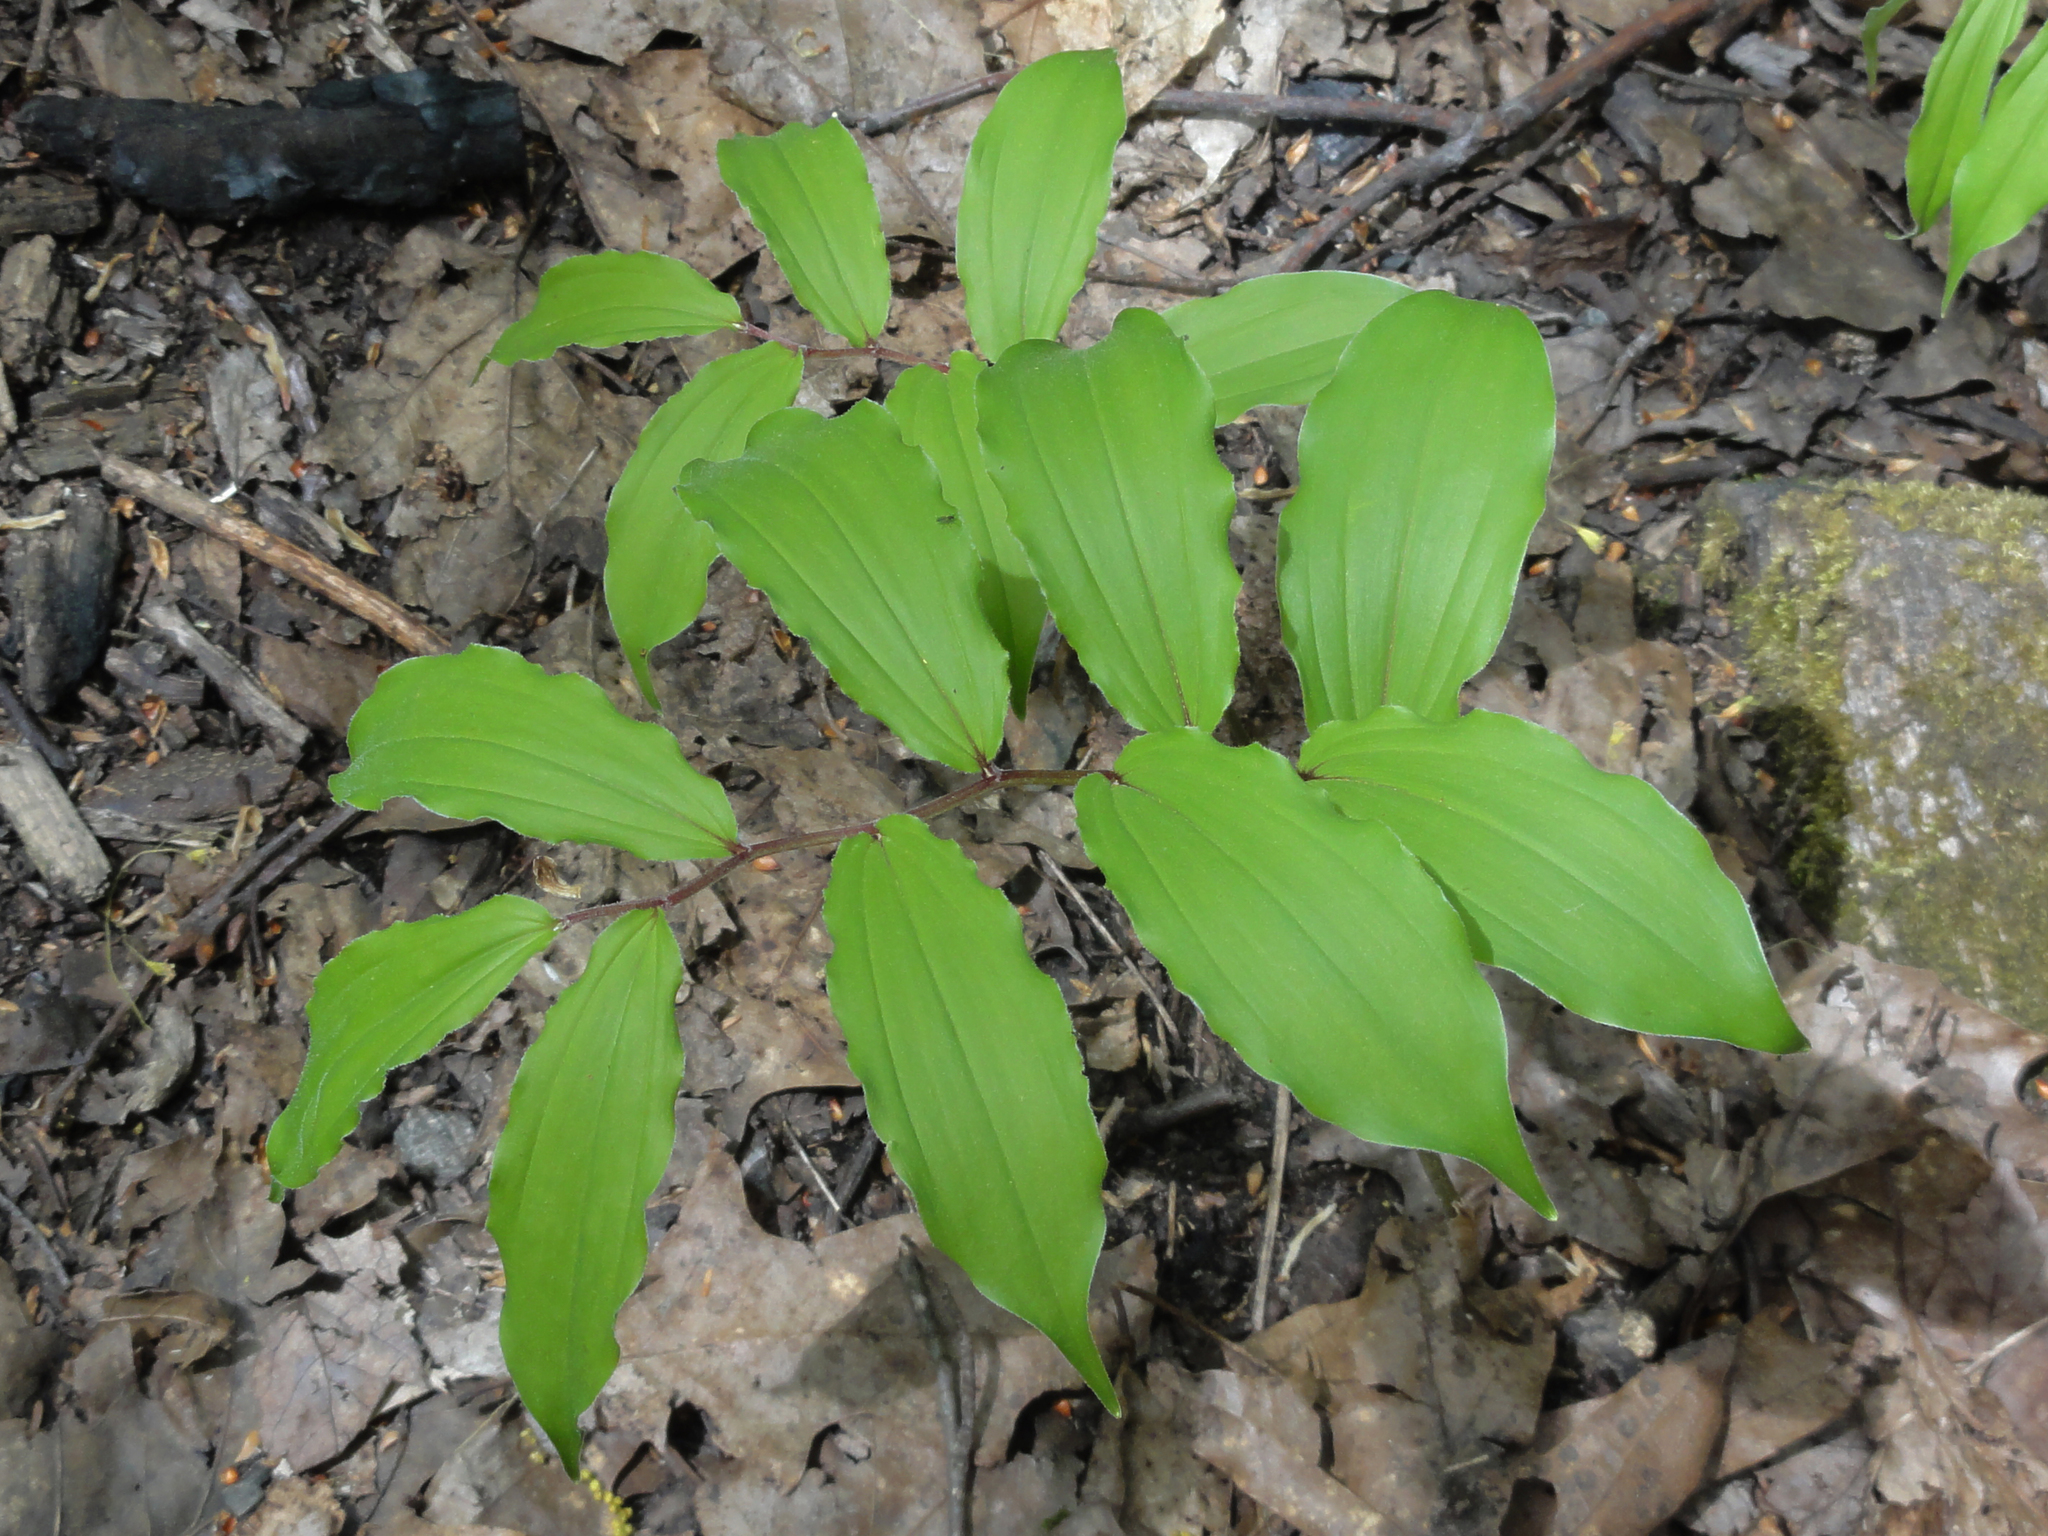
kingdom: Plantae
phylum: Tracheophyta
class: Liliopsida
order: Asparagales
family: Asparagaceae
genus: Maianthemum
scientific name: Maianthemum racemosum
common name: False spikenard
